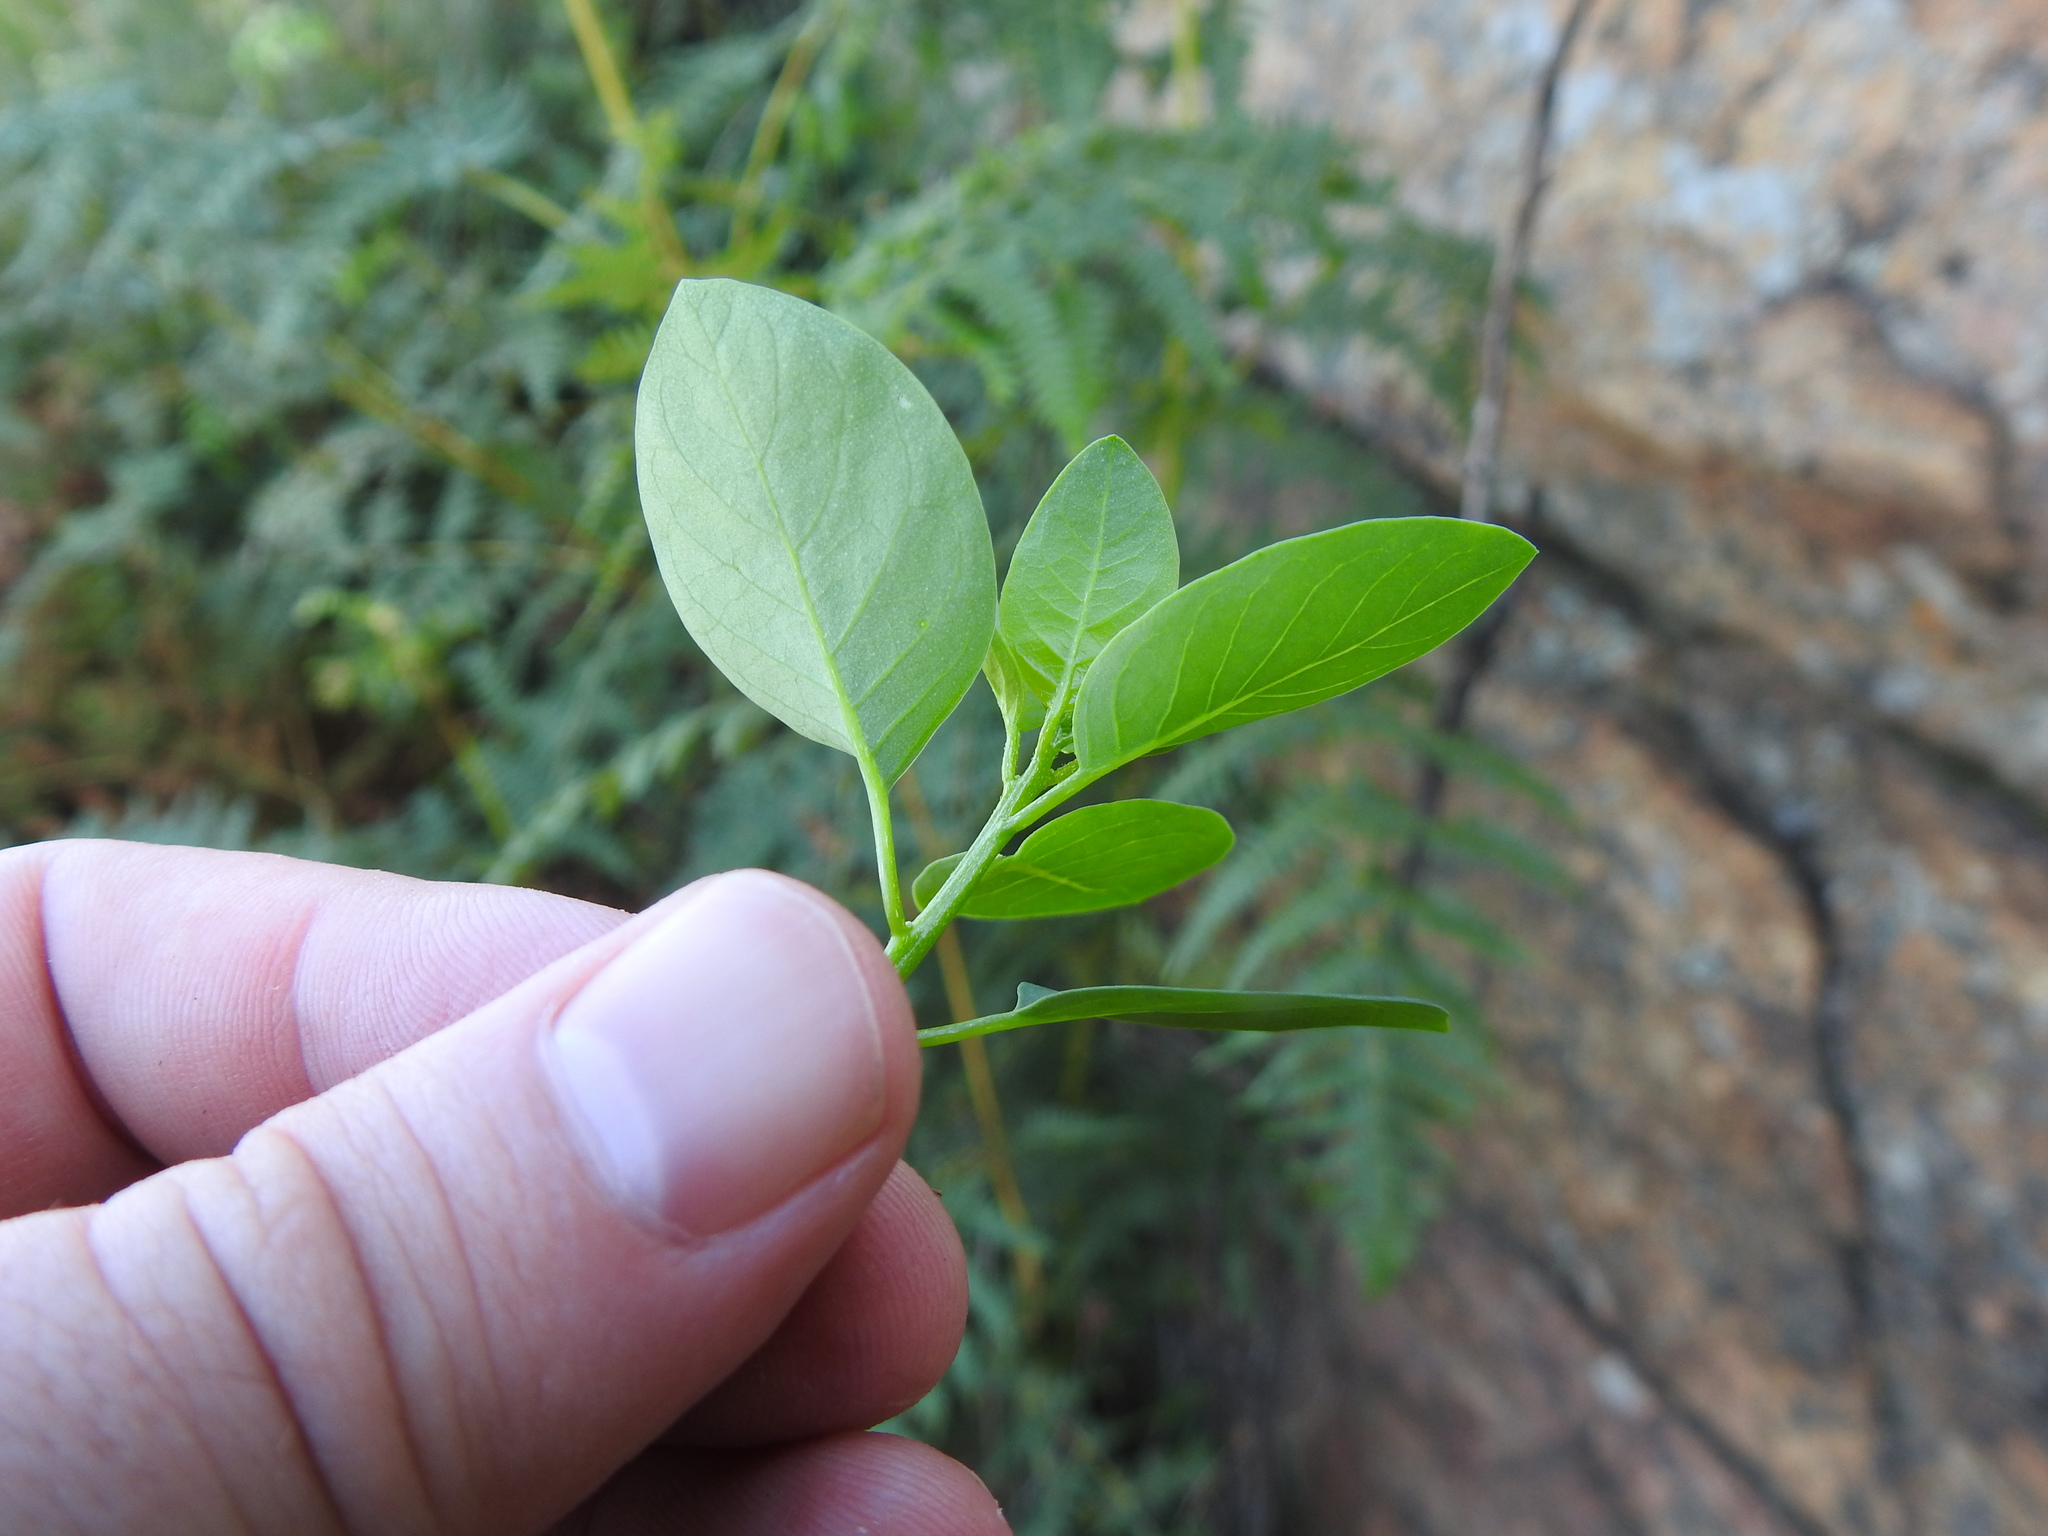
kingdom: Plantae
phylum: Tracheophyta
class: Magnoliopsida
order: Malpighiales
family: Peraceae
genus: Clutia
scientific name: Clutia pulchella
